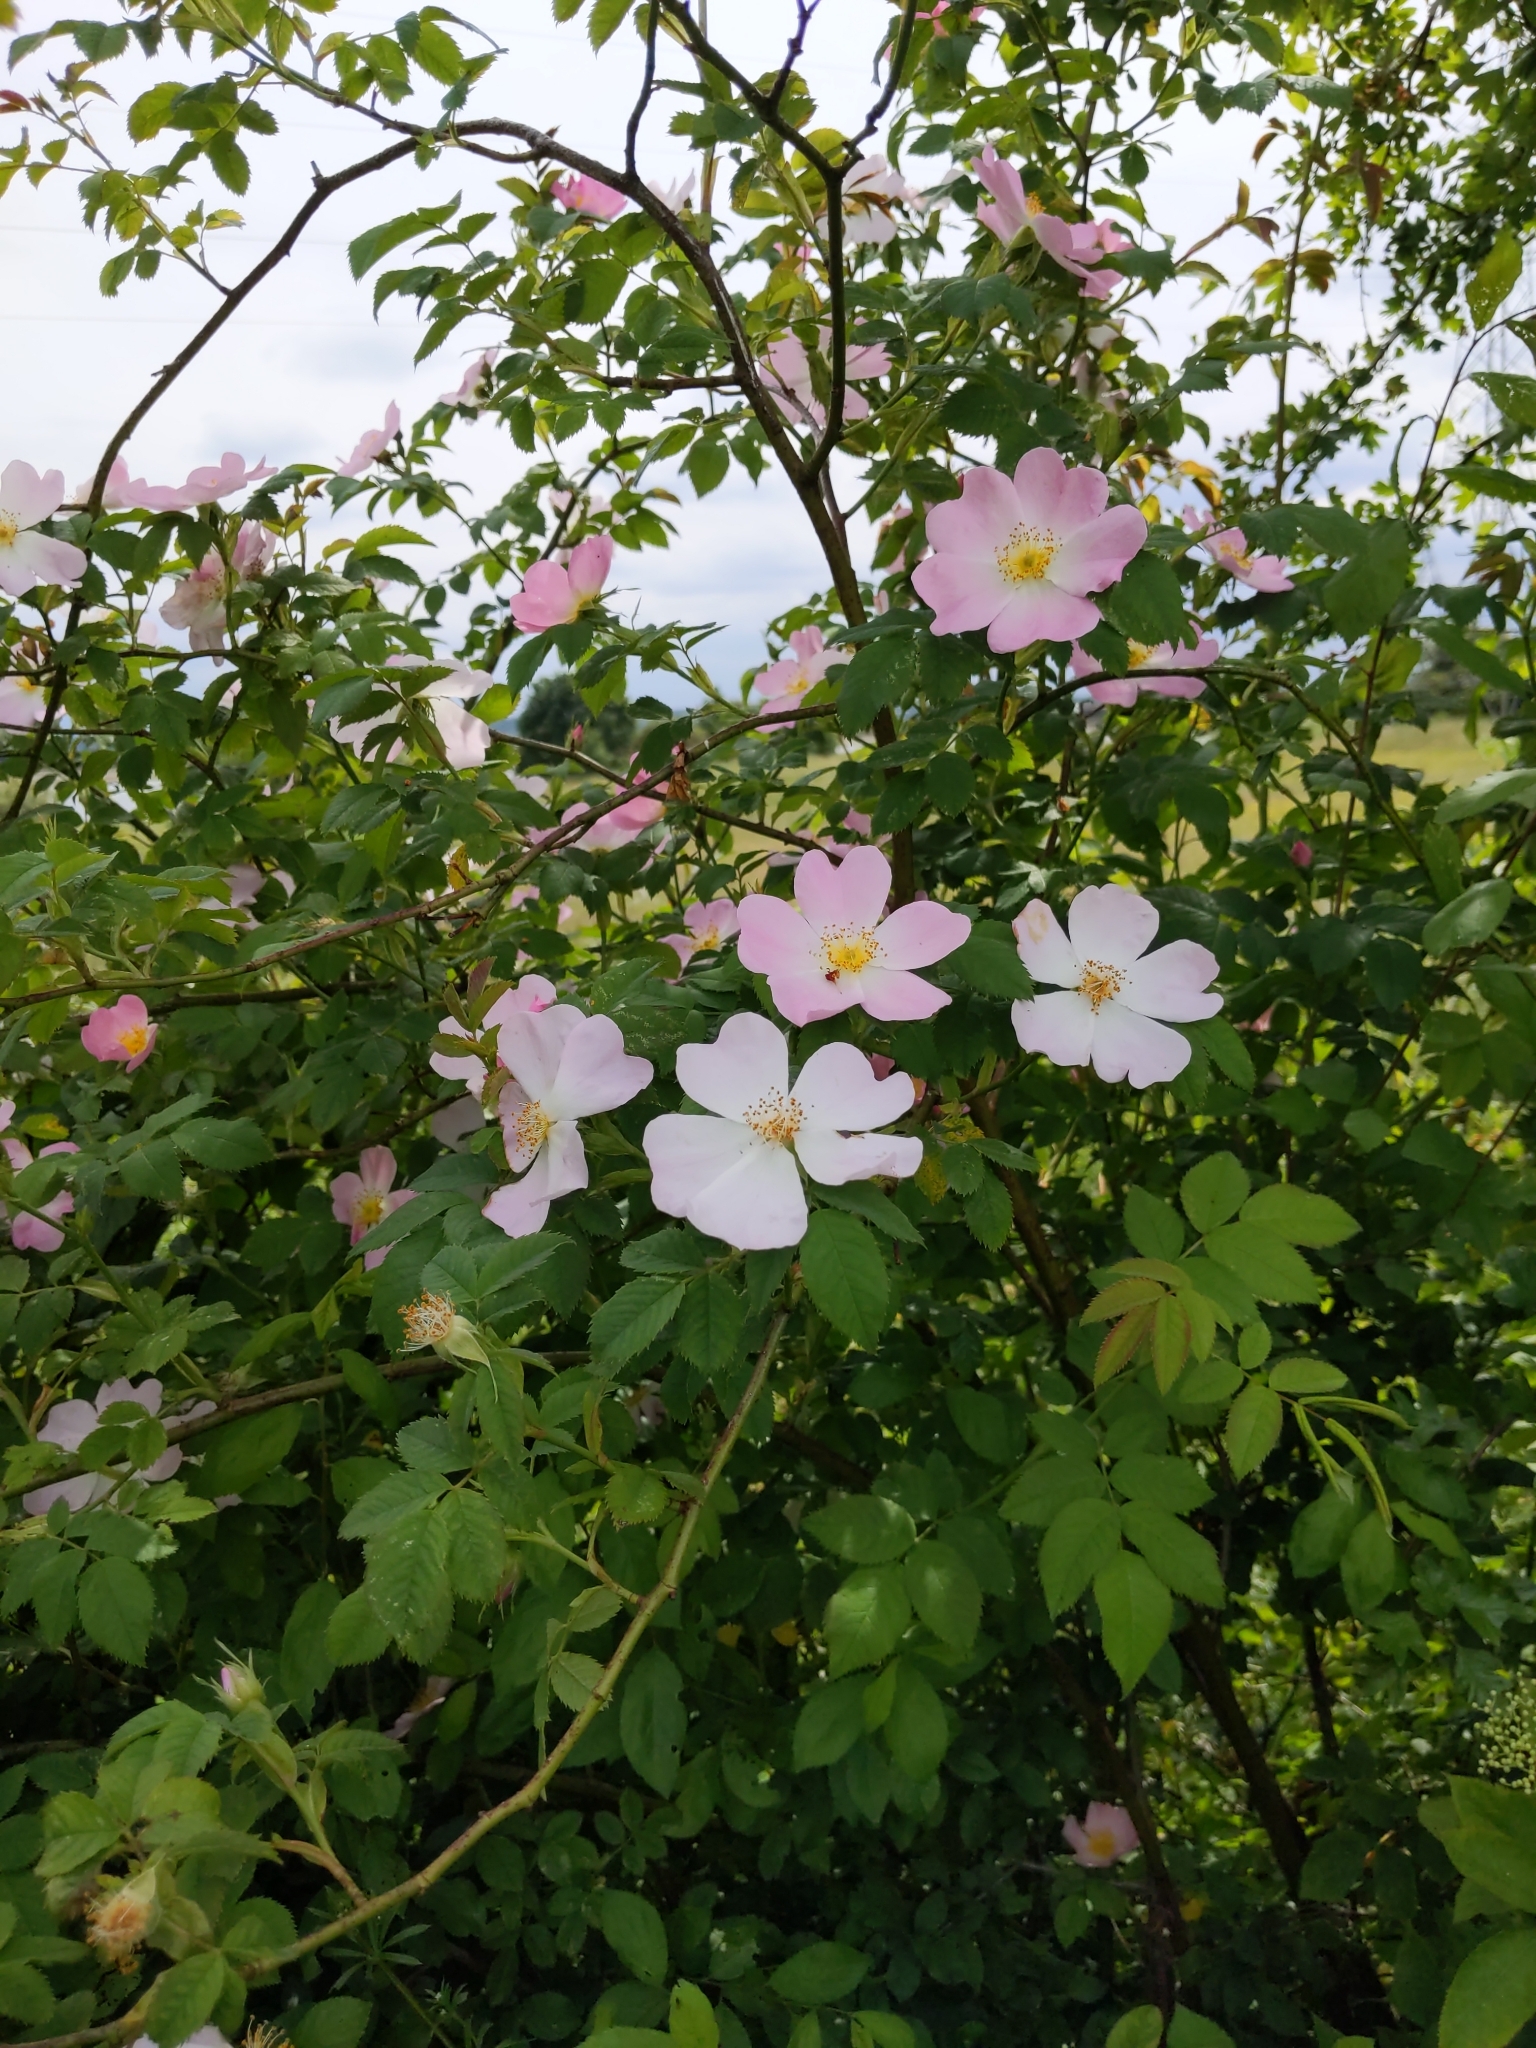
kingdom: Plantae
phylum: Tracheophyta
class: Magnoliopsida
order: Rosales
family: Rosaceae
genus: Rosa
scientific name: Rosa canina
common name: Dog rose
